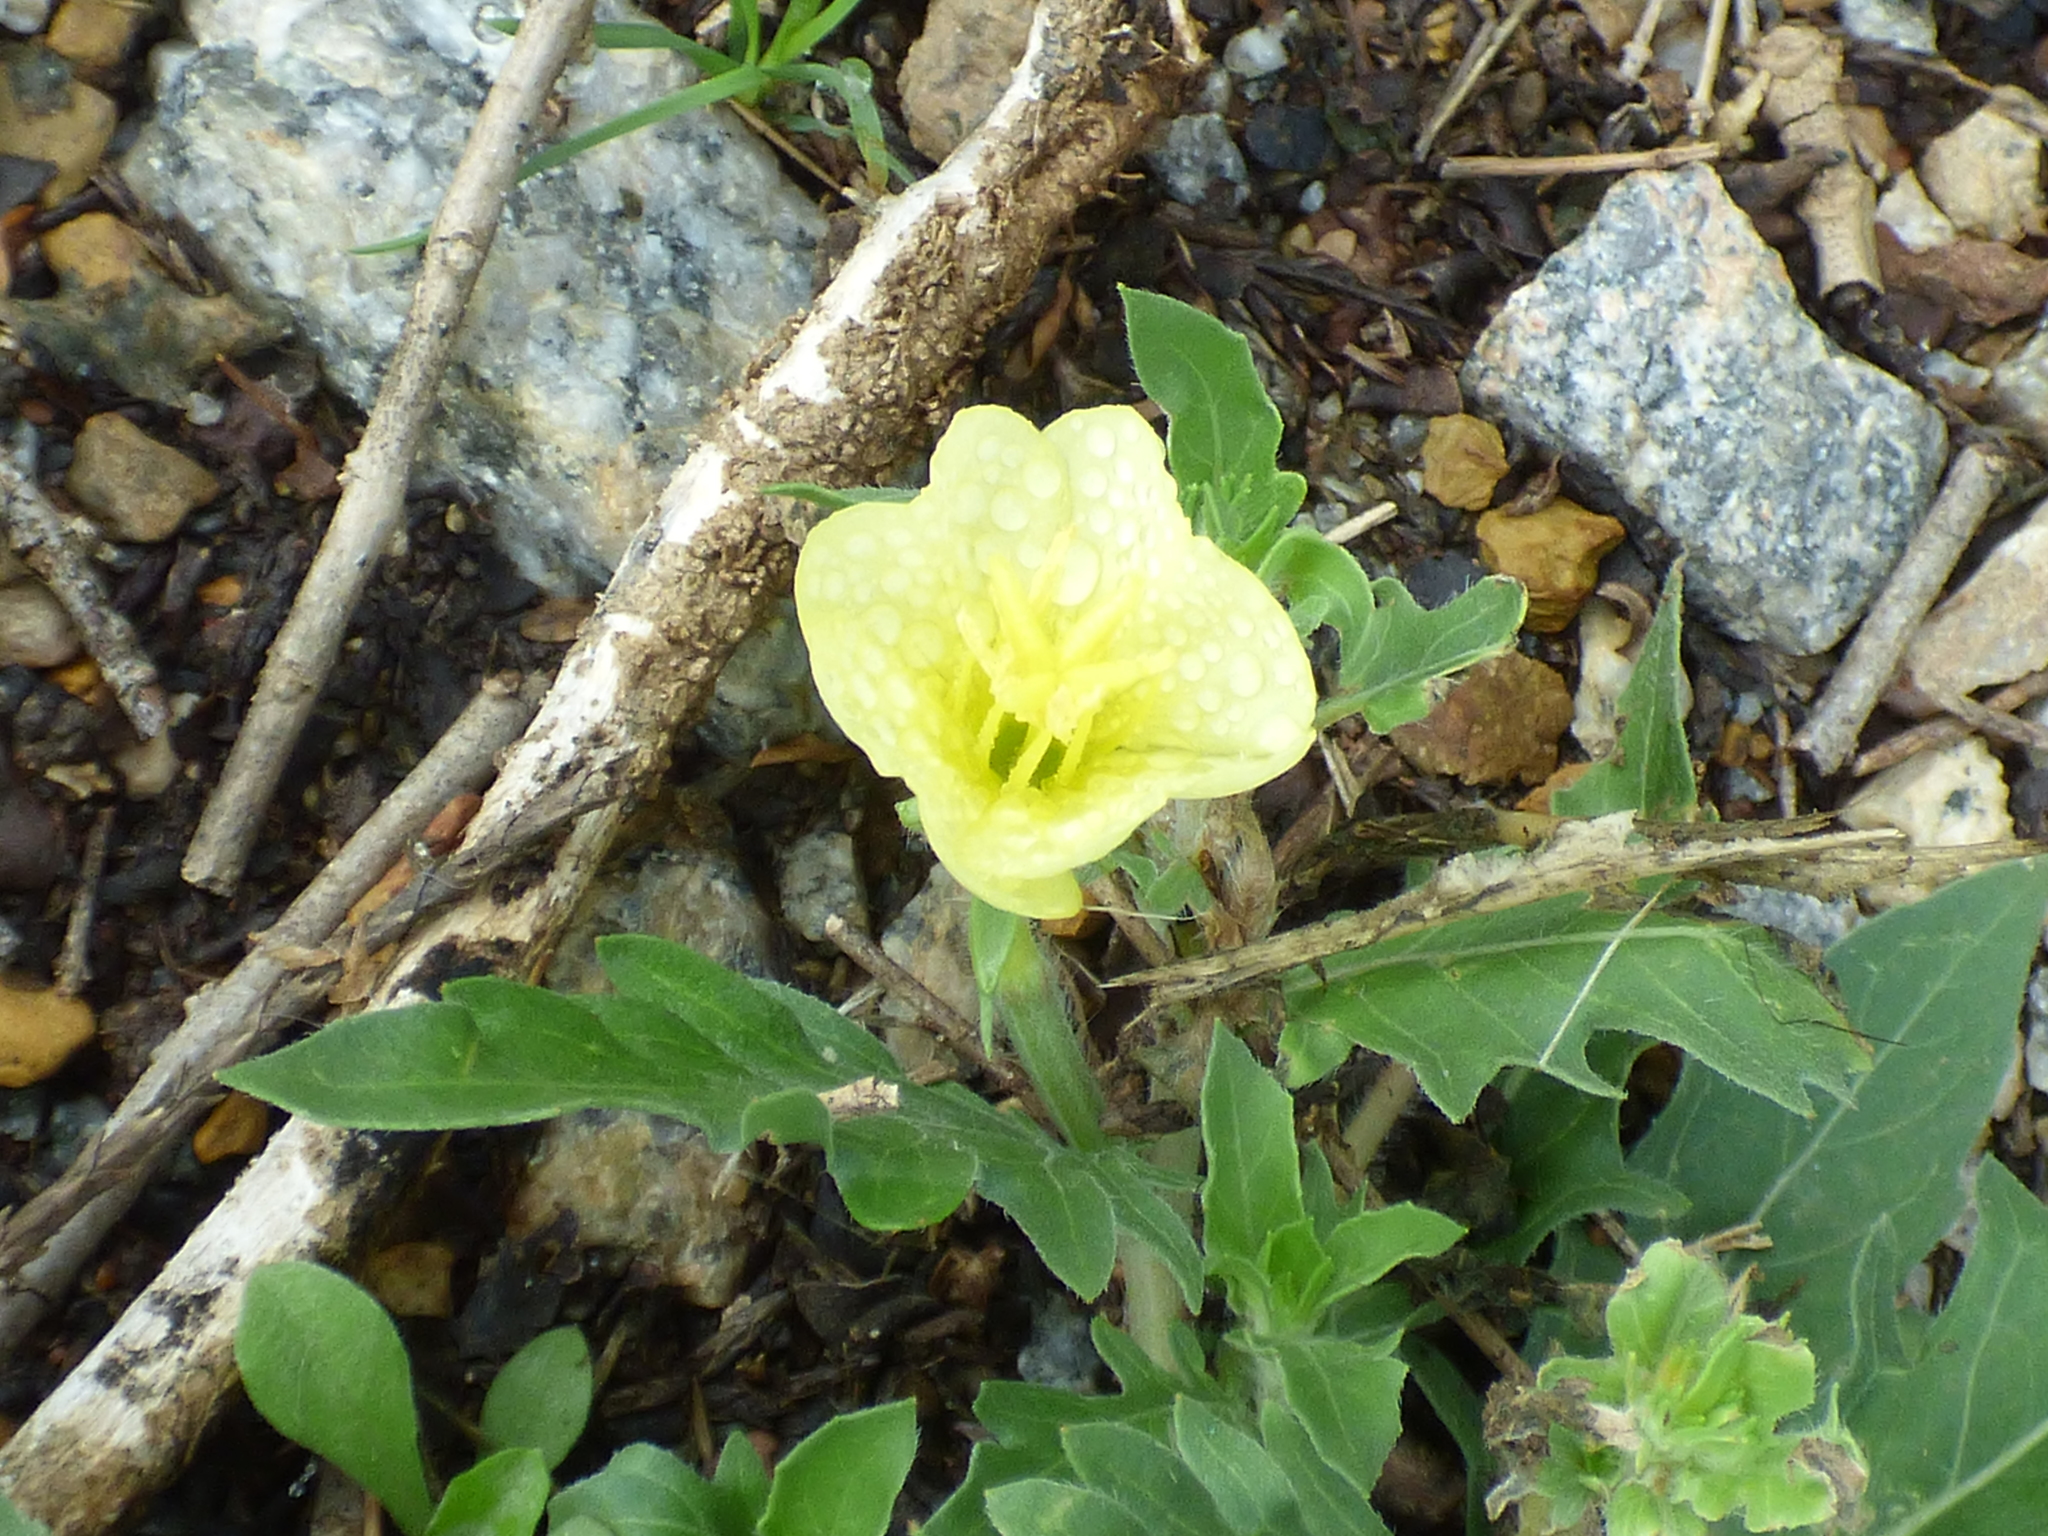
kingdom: Plantae
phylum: Tracheophyta
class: Magnoliopsida
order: Myrtales
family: Onagraceae
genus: Oenothera
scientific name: Oenothera laciniata
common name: Cut-leaved evening-primrose
